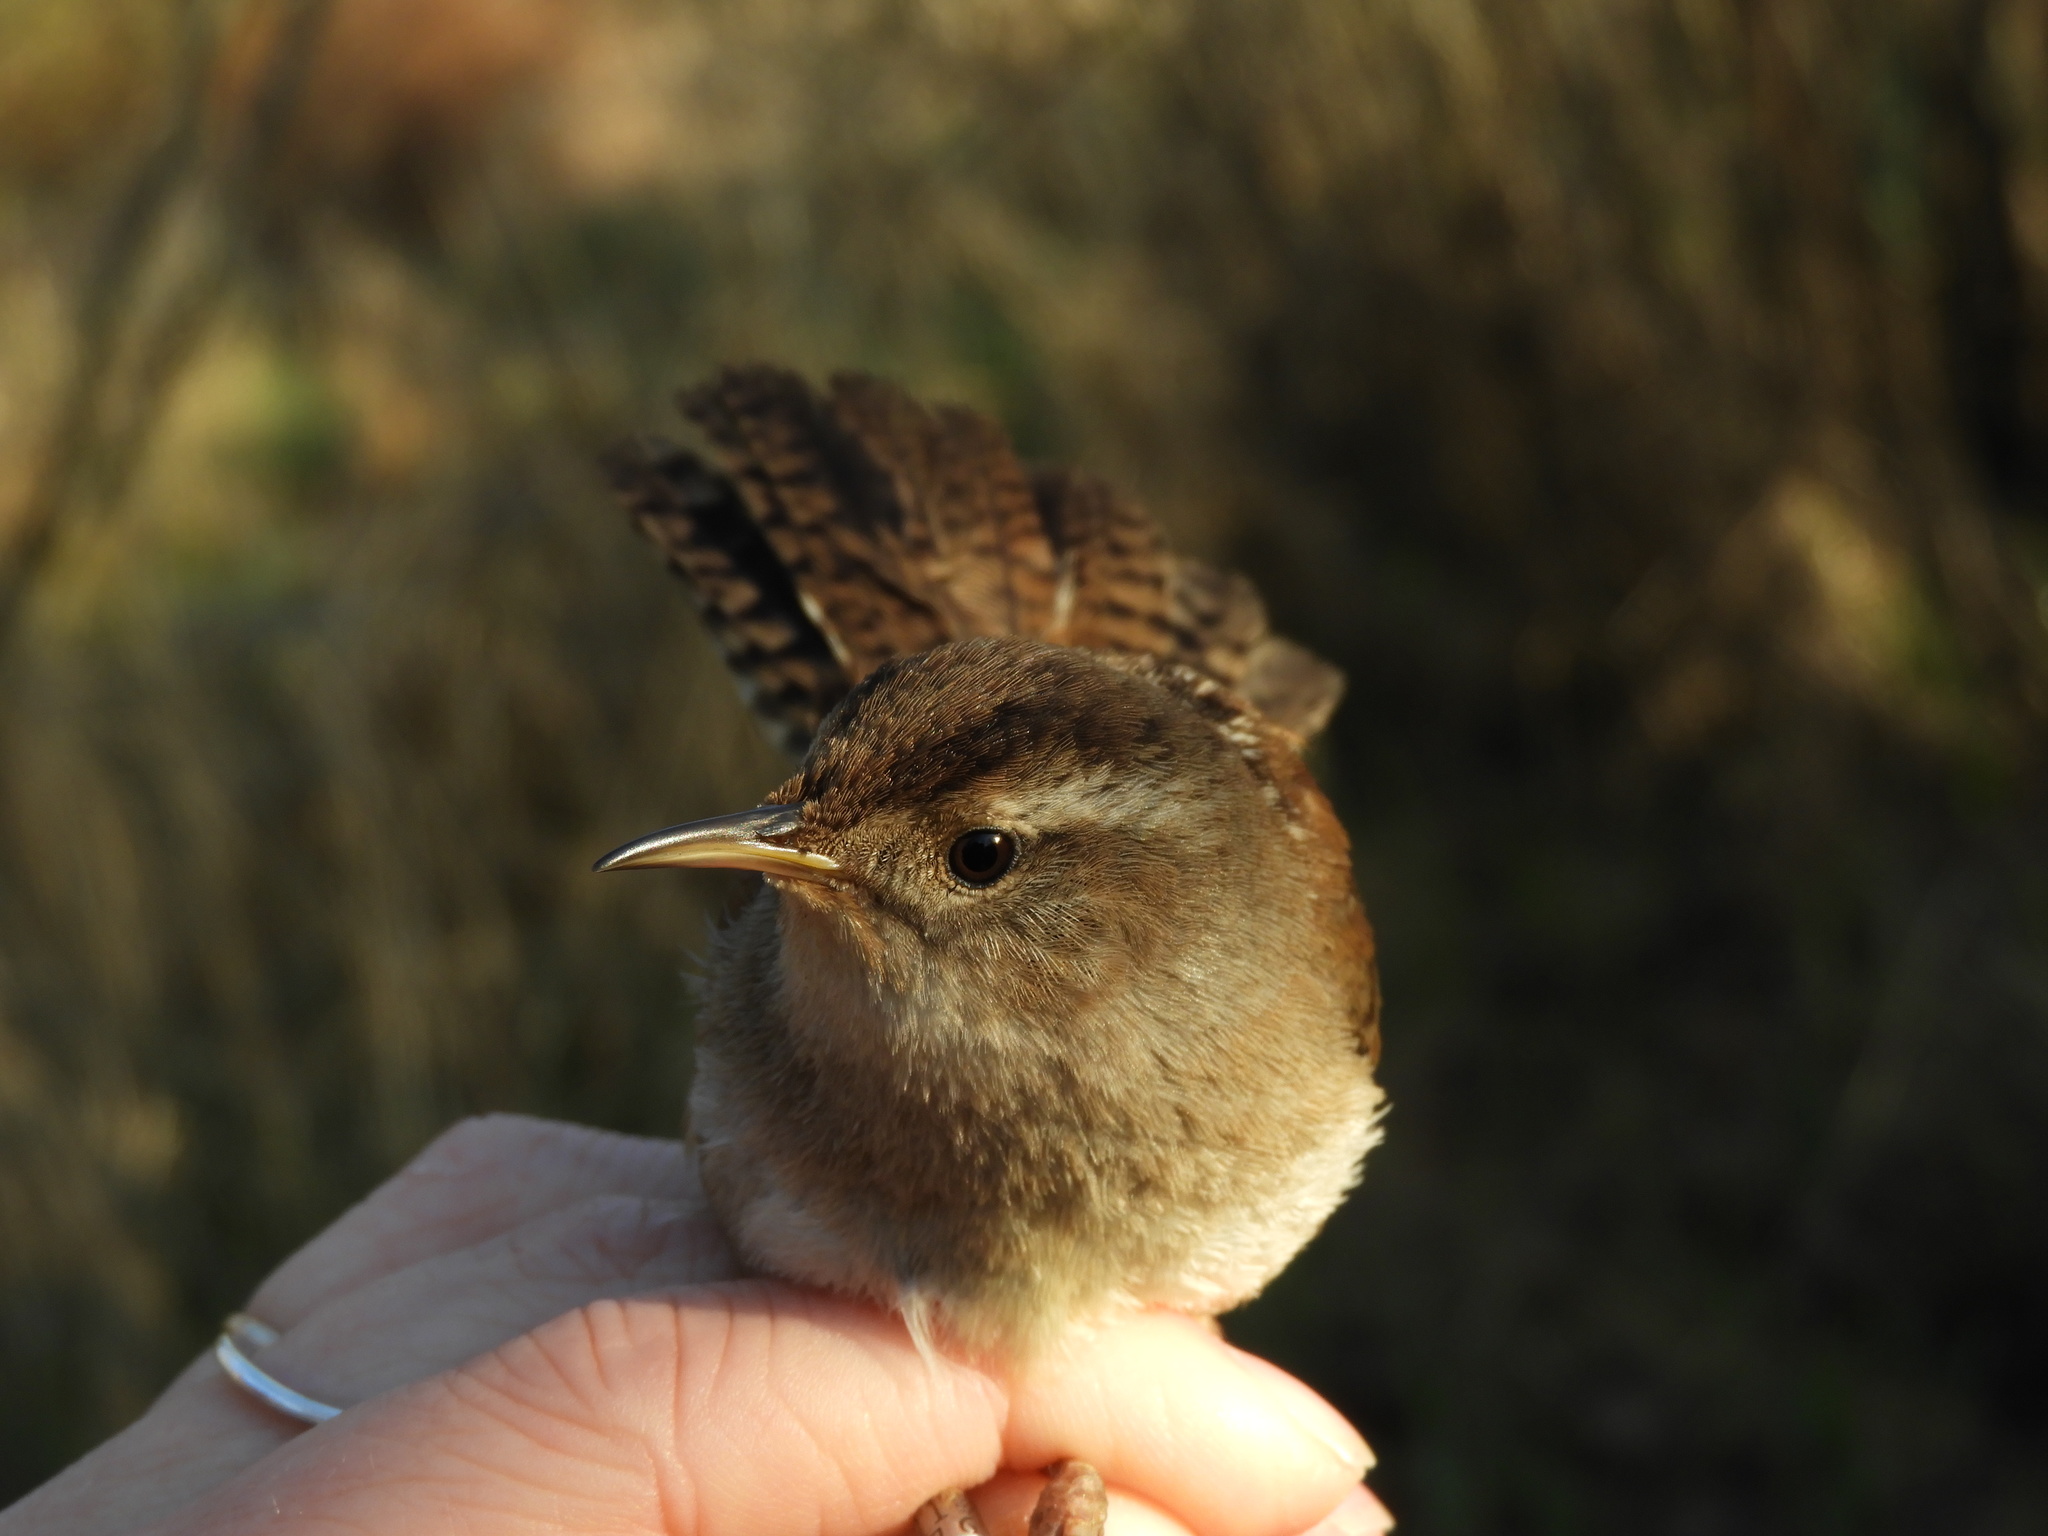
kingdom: Animalia
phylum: Chordata
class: Aves
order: Passeriformes
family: Troglodytidae
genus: Cistothorus
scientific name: Cistothorus palustris
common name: Marsh wren
